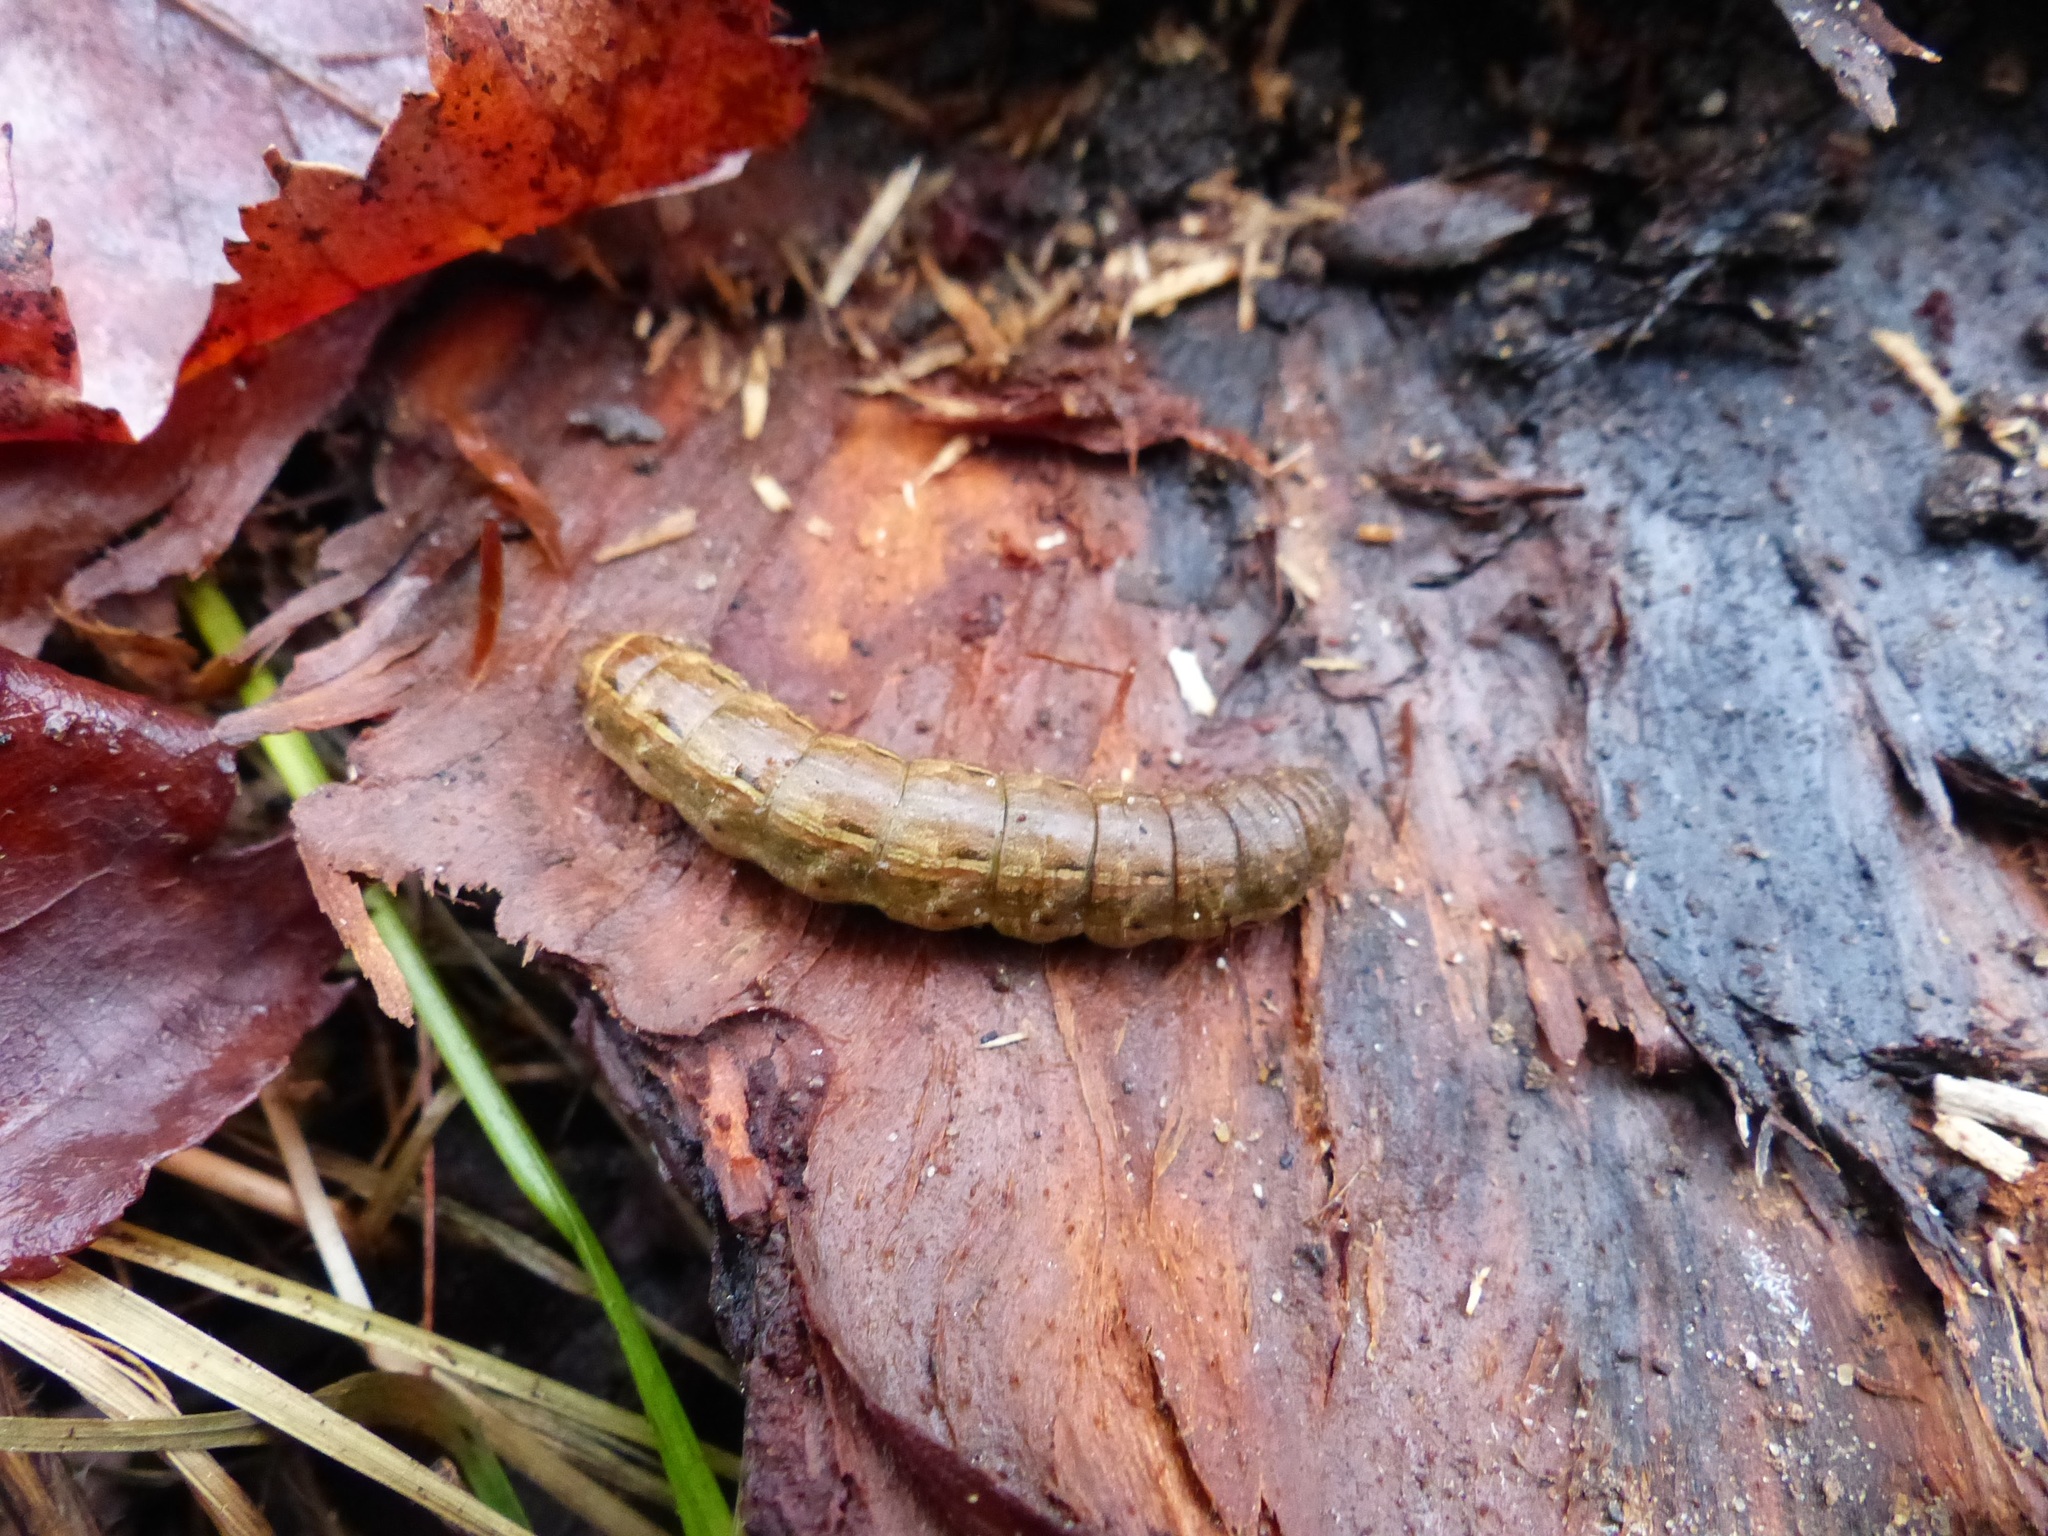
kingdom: Animalia
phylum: Arthropoda
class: Insecta
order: Lepidoptera
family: Noctuidae
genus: Noctua
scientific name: Noctua pronuba
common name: Large yellow underwing
